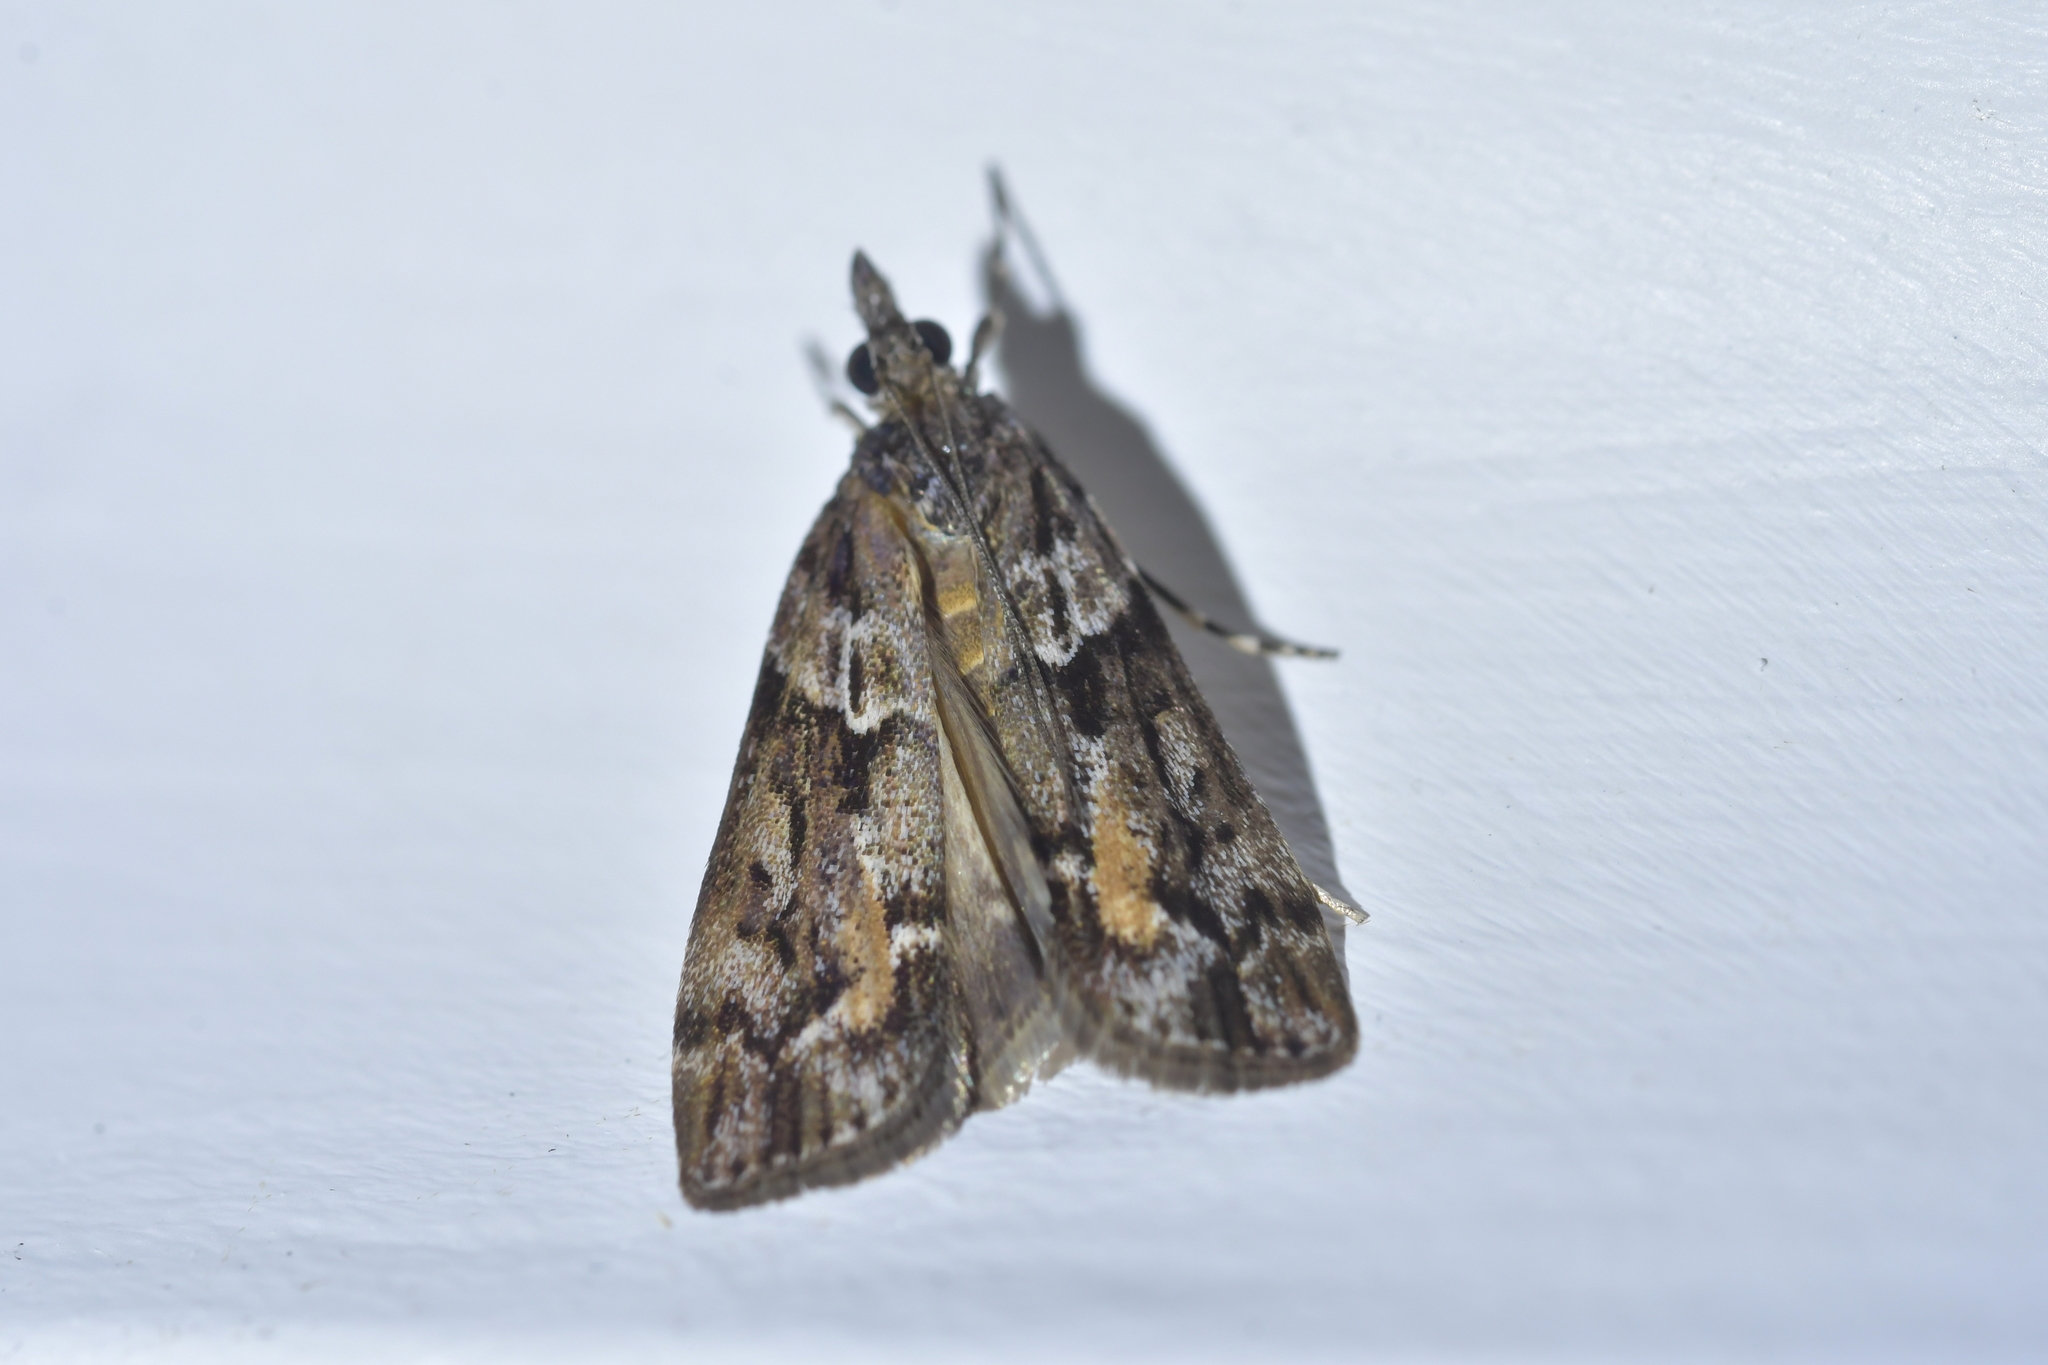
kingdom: Animalia
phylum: Arthropoda
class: Insecta
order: Lepidoptera
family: Crambidae
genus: Eudonia
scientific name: Eudonia submarginalis
